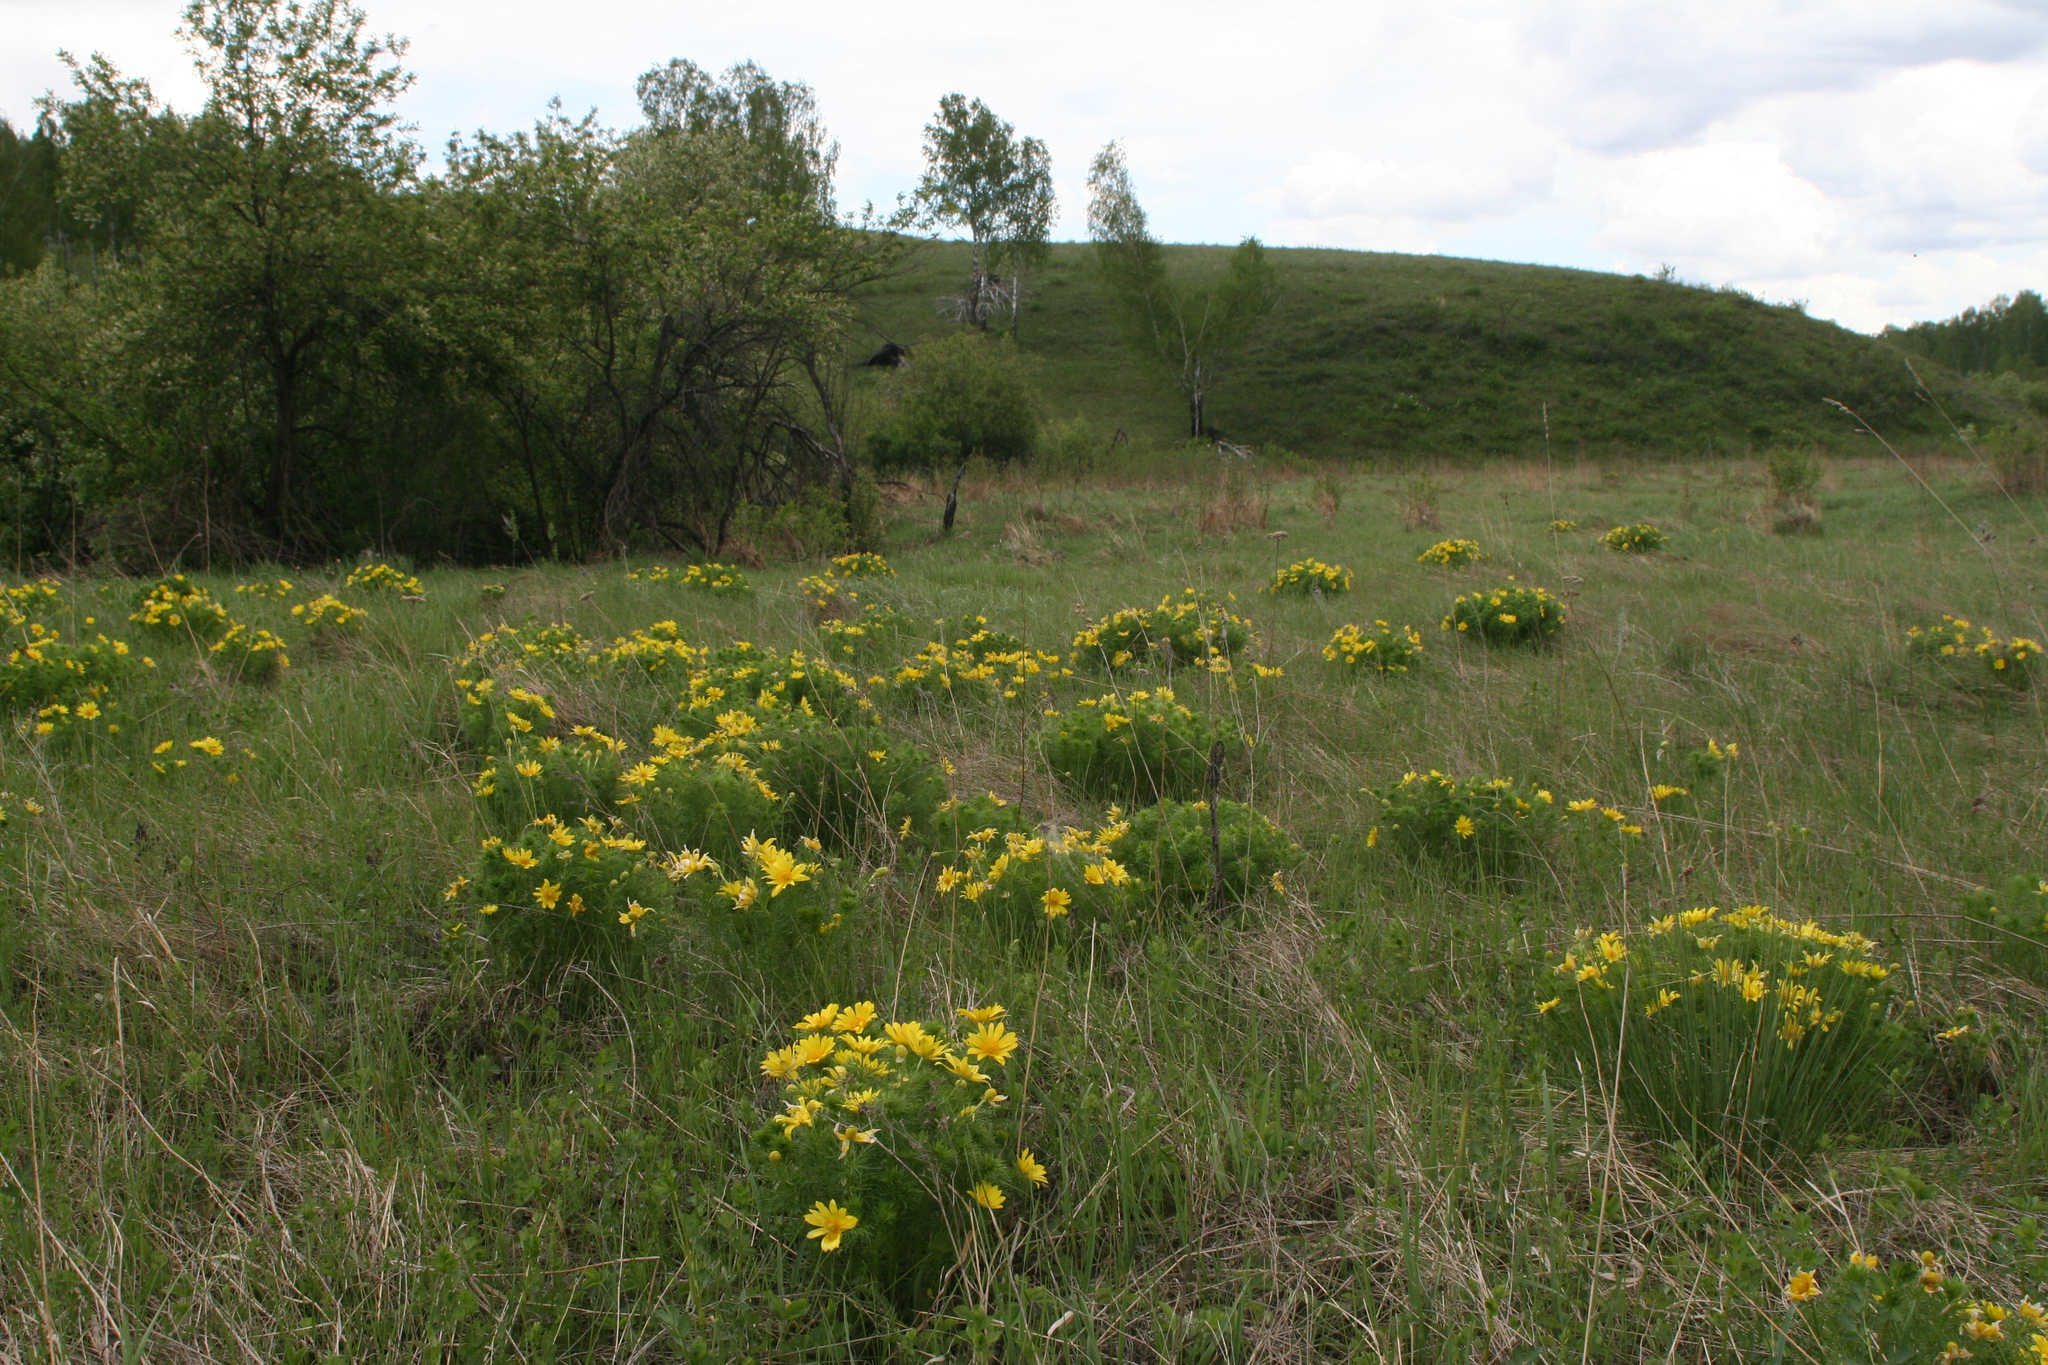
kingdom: Plantae
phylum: Tracheophyta
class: Magnoliopsida
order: Ranunculales
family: Ranunculaceae
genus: Adonis
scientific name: Adonis vernalis
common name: Yellow pheasants-eye
